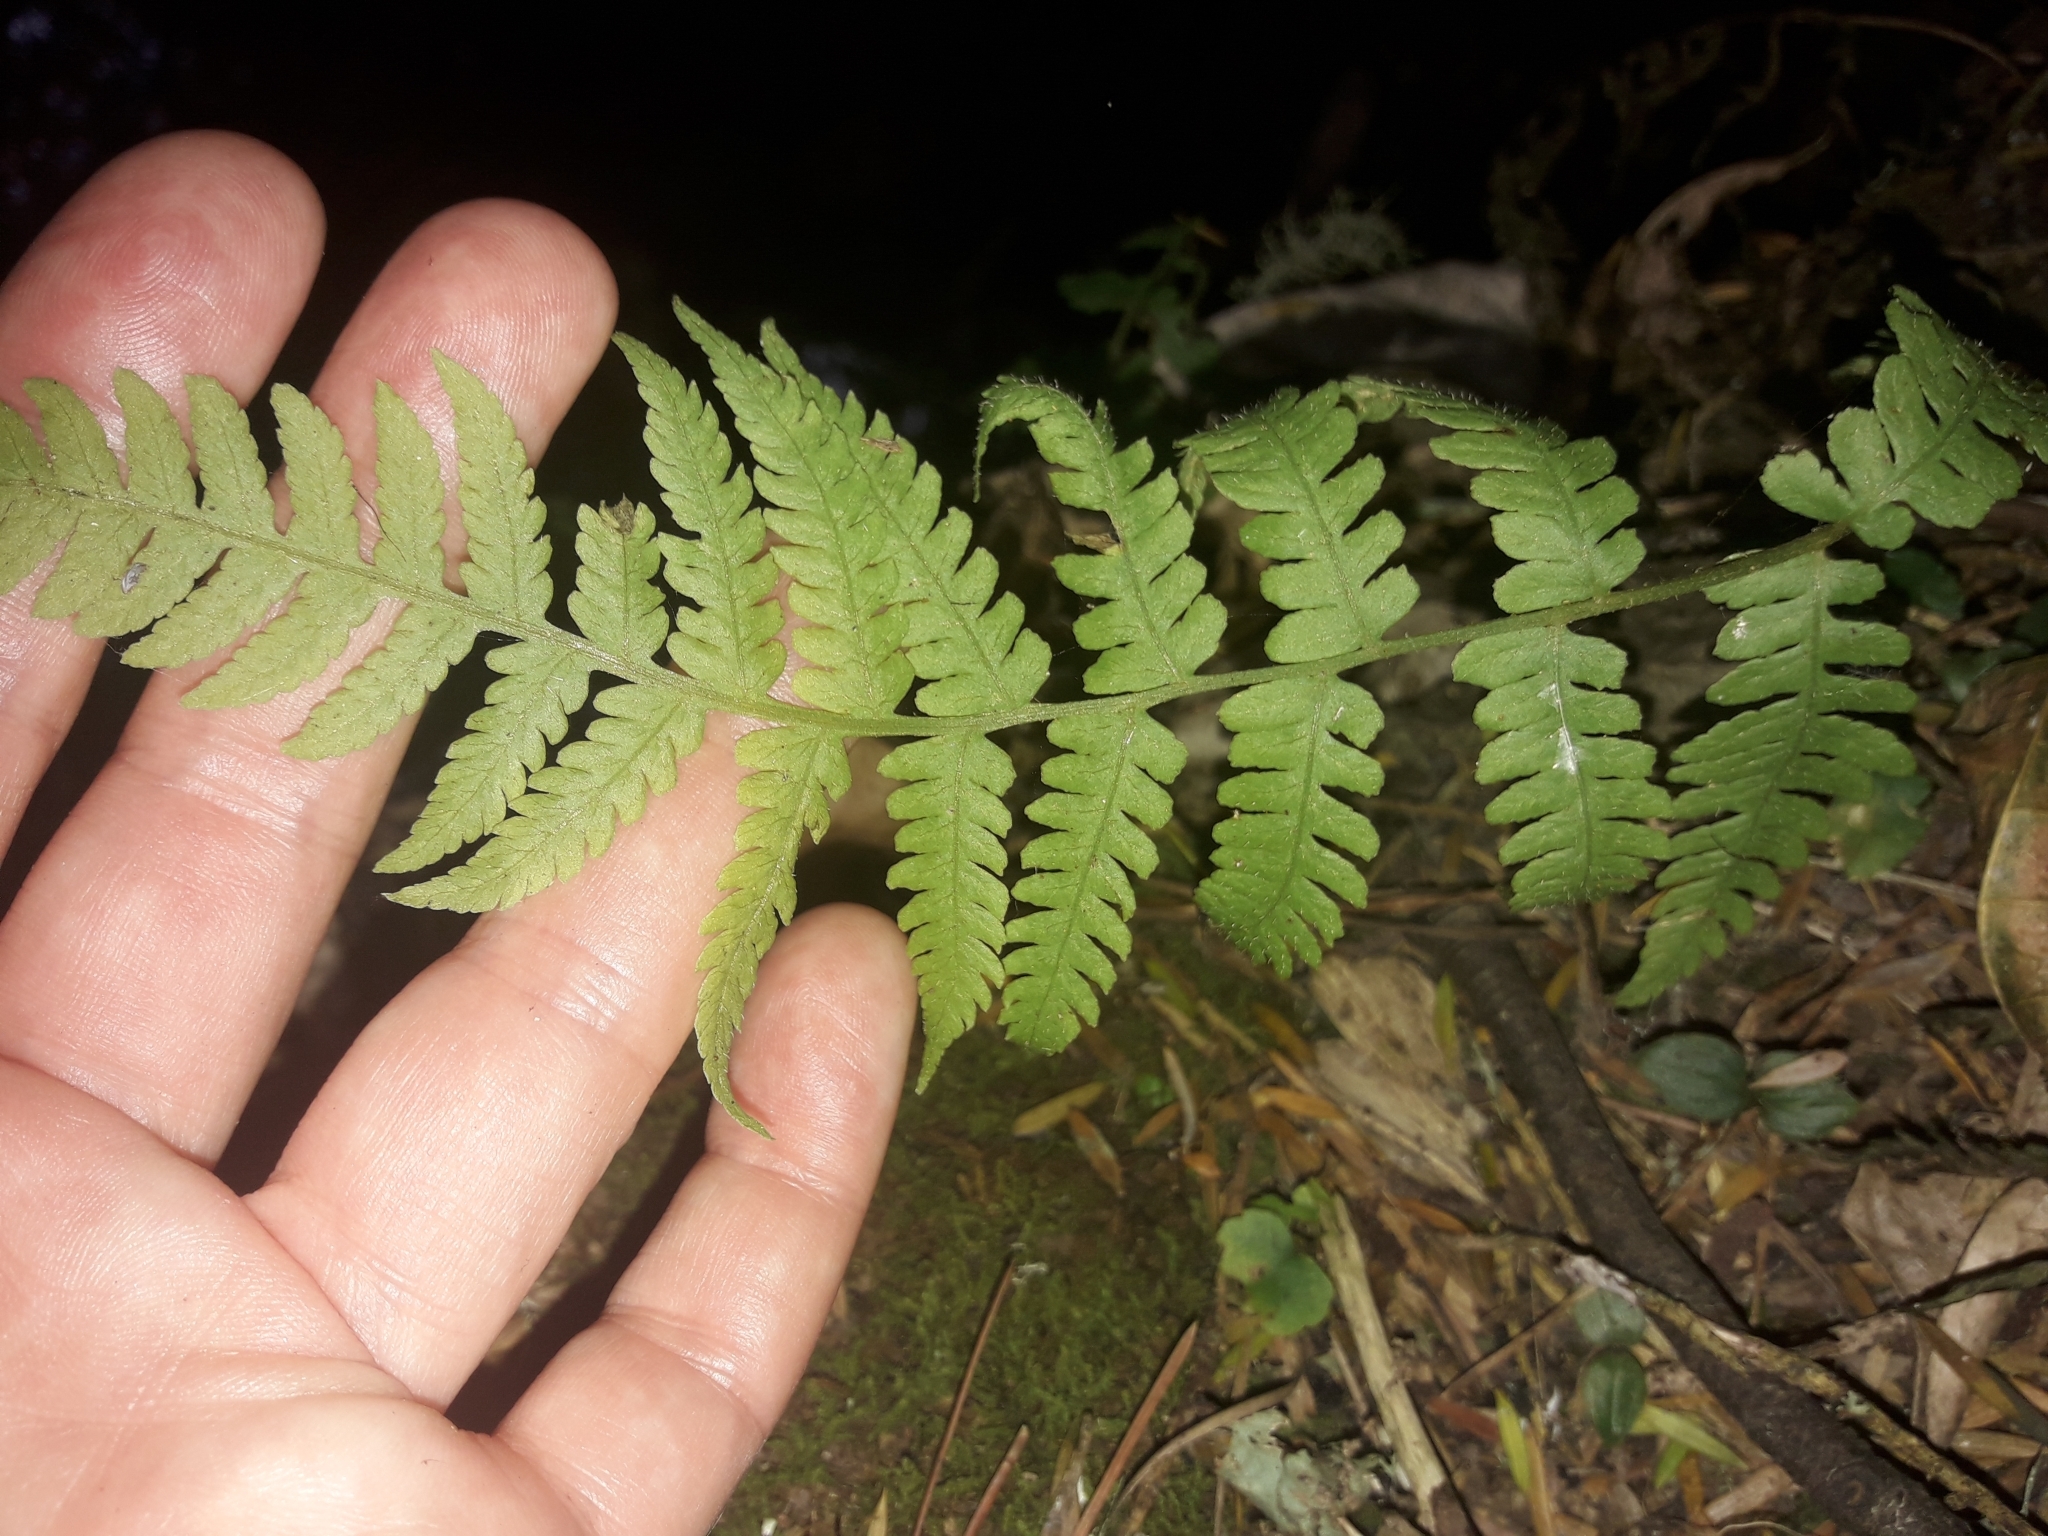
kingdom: Plantae
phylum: Tracheophyta
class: Polypodiopsida
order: Polypodiales
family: Athyriaceae
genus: Deparia
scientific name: Deparia petersenii
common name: Japanese false spleenwort
